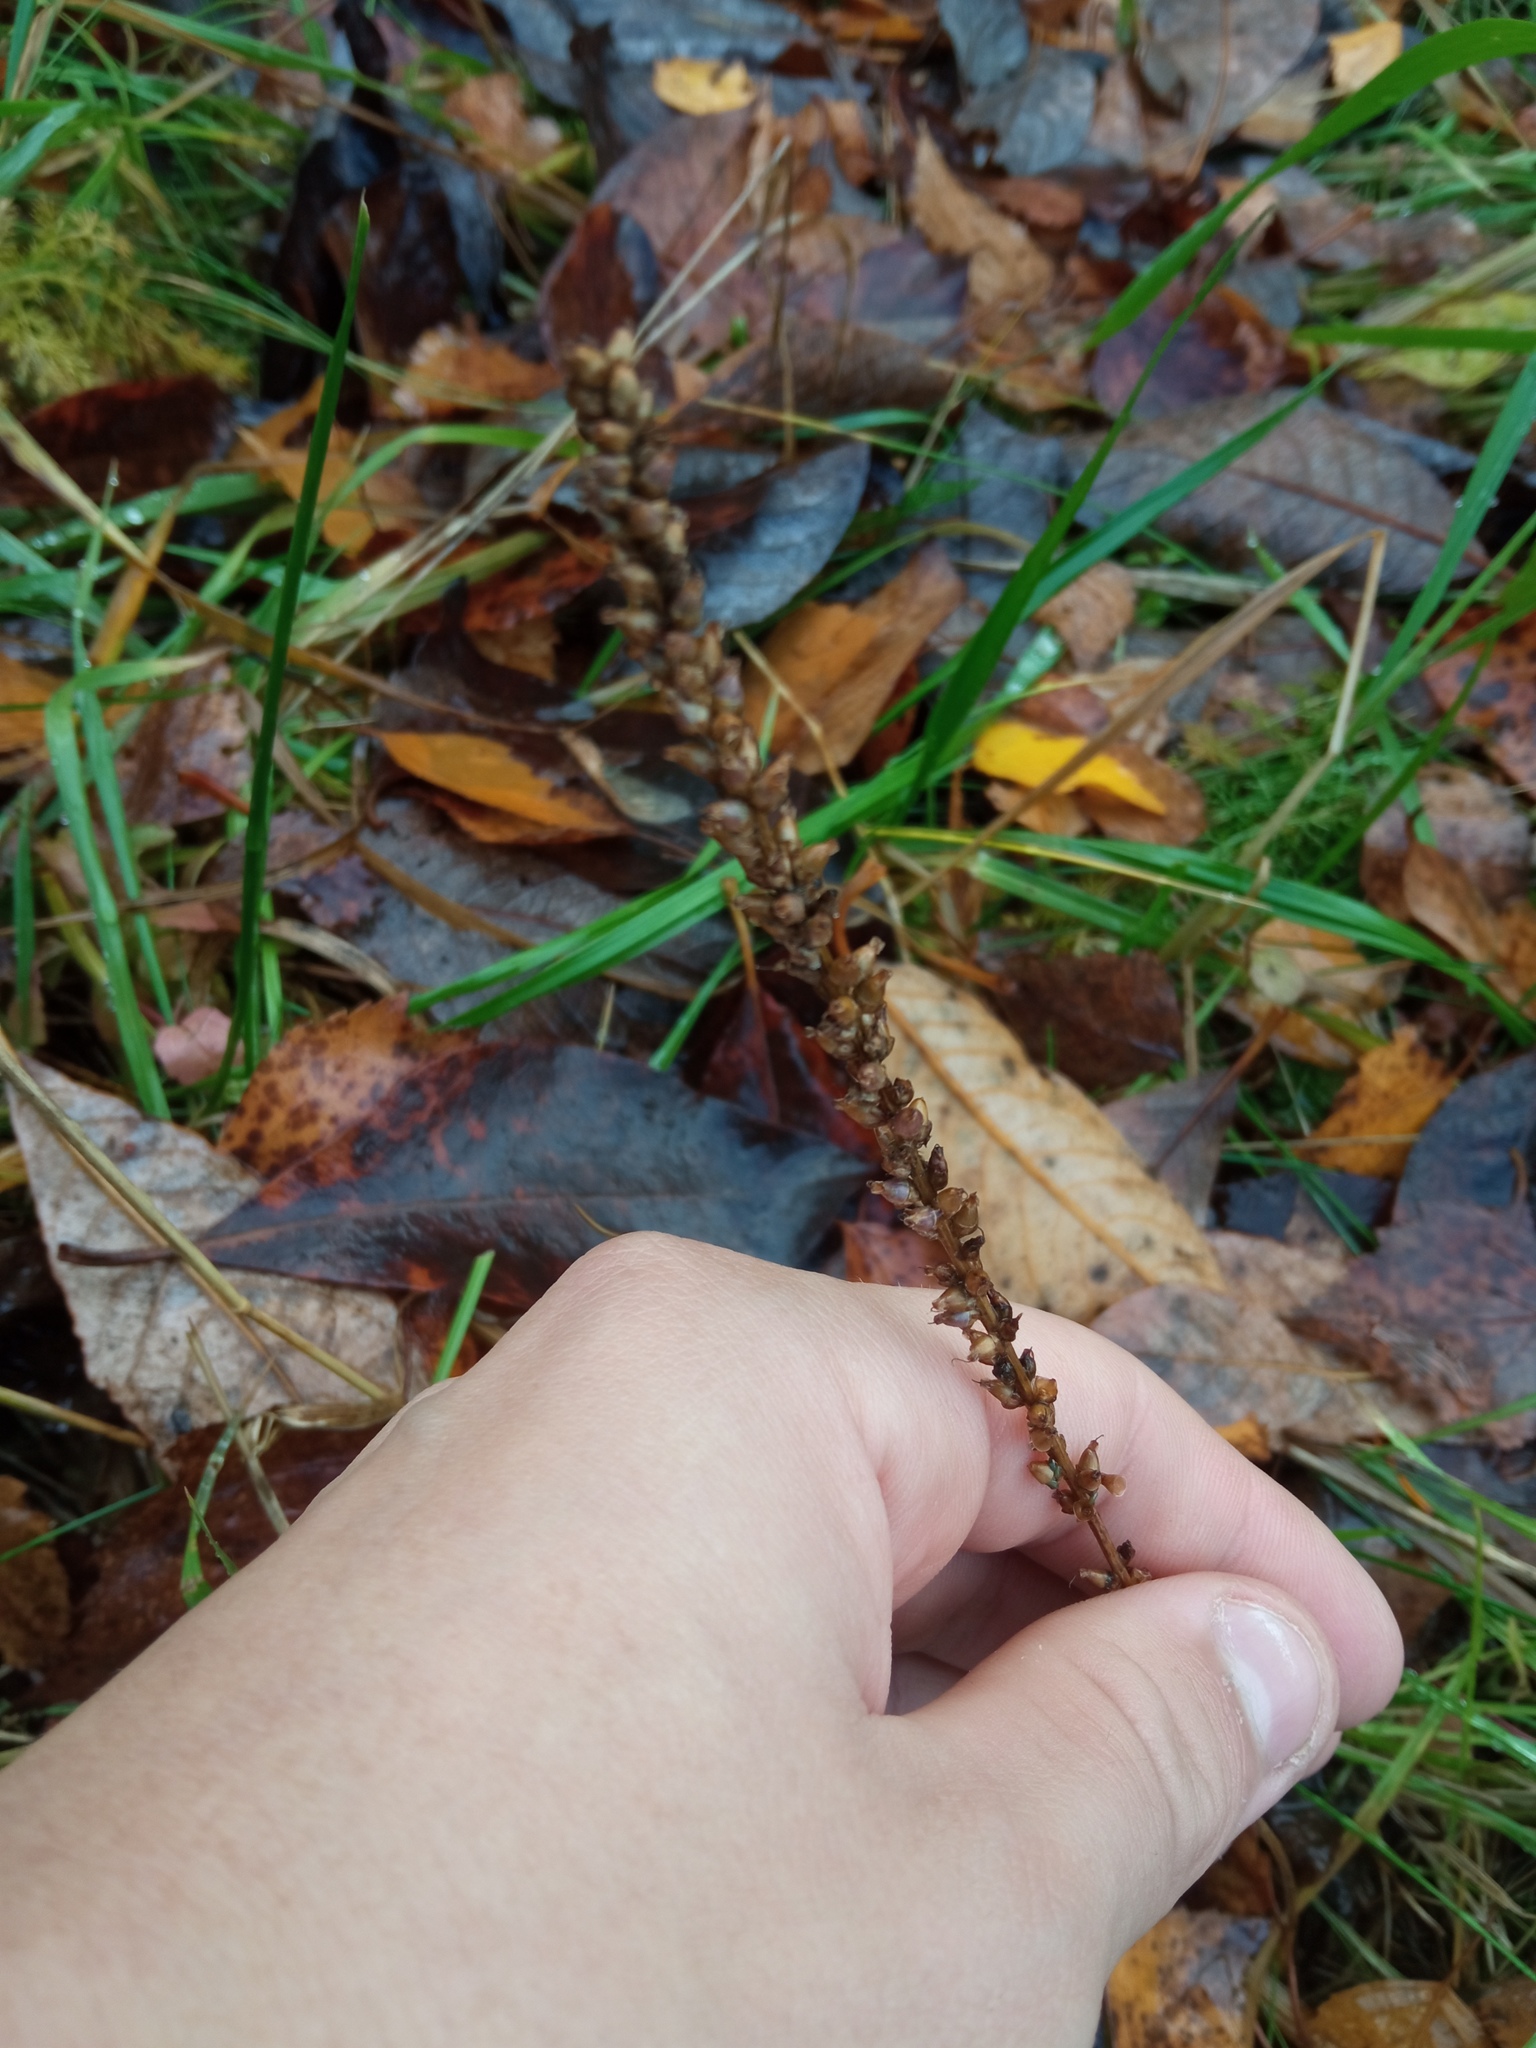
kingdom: Plantae
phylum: Tracheophyta
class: Magnoliopsida
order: Lamiales
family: Plantaginaceae
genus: Plantago
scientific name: Plantago major
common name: Common plantain
